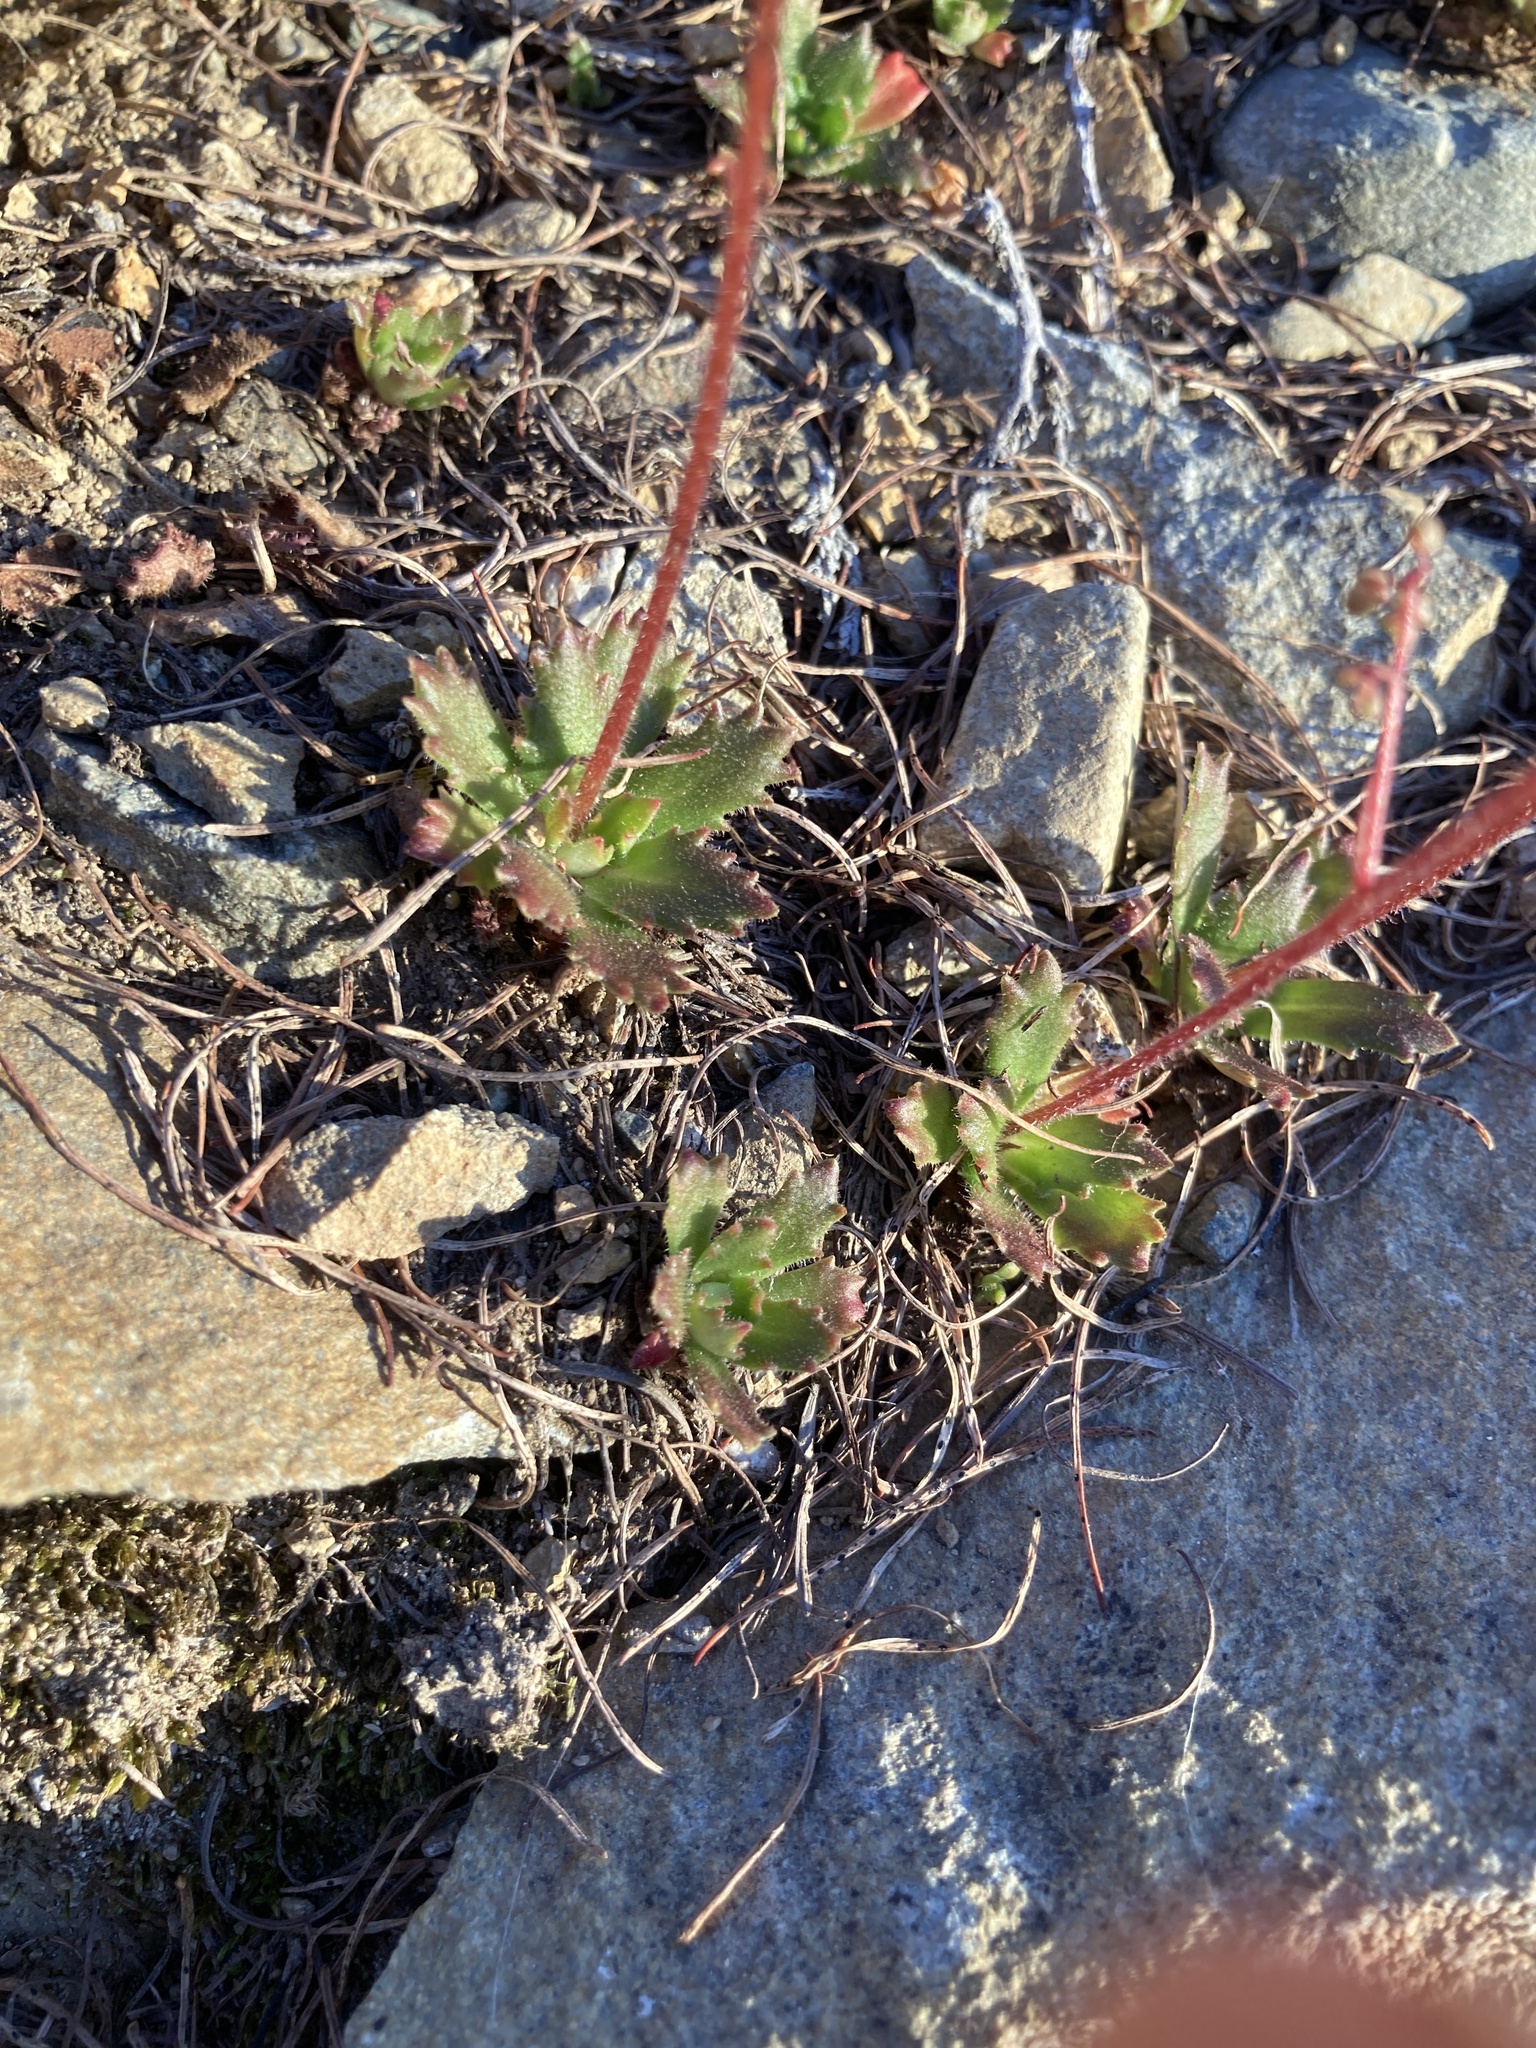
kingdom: Plantae
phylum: Tracheophyta
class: Magnoliopsida
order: Saxifragales
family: Saxifragaceae
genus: Micranthes
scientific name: Micranthes ferruginea
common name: Rusty saxifrage
